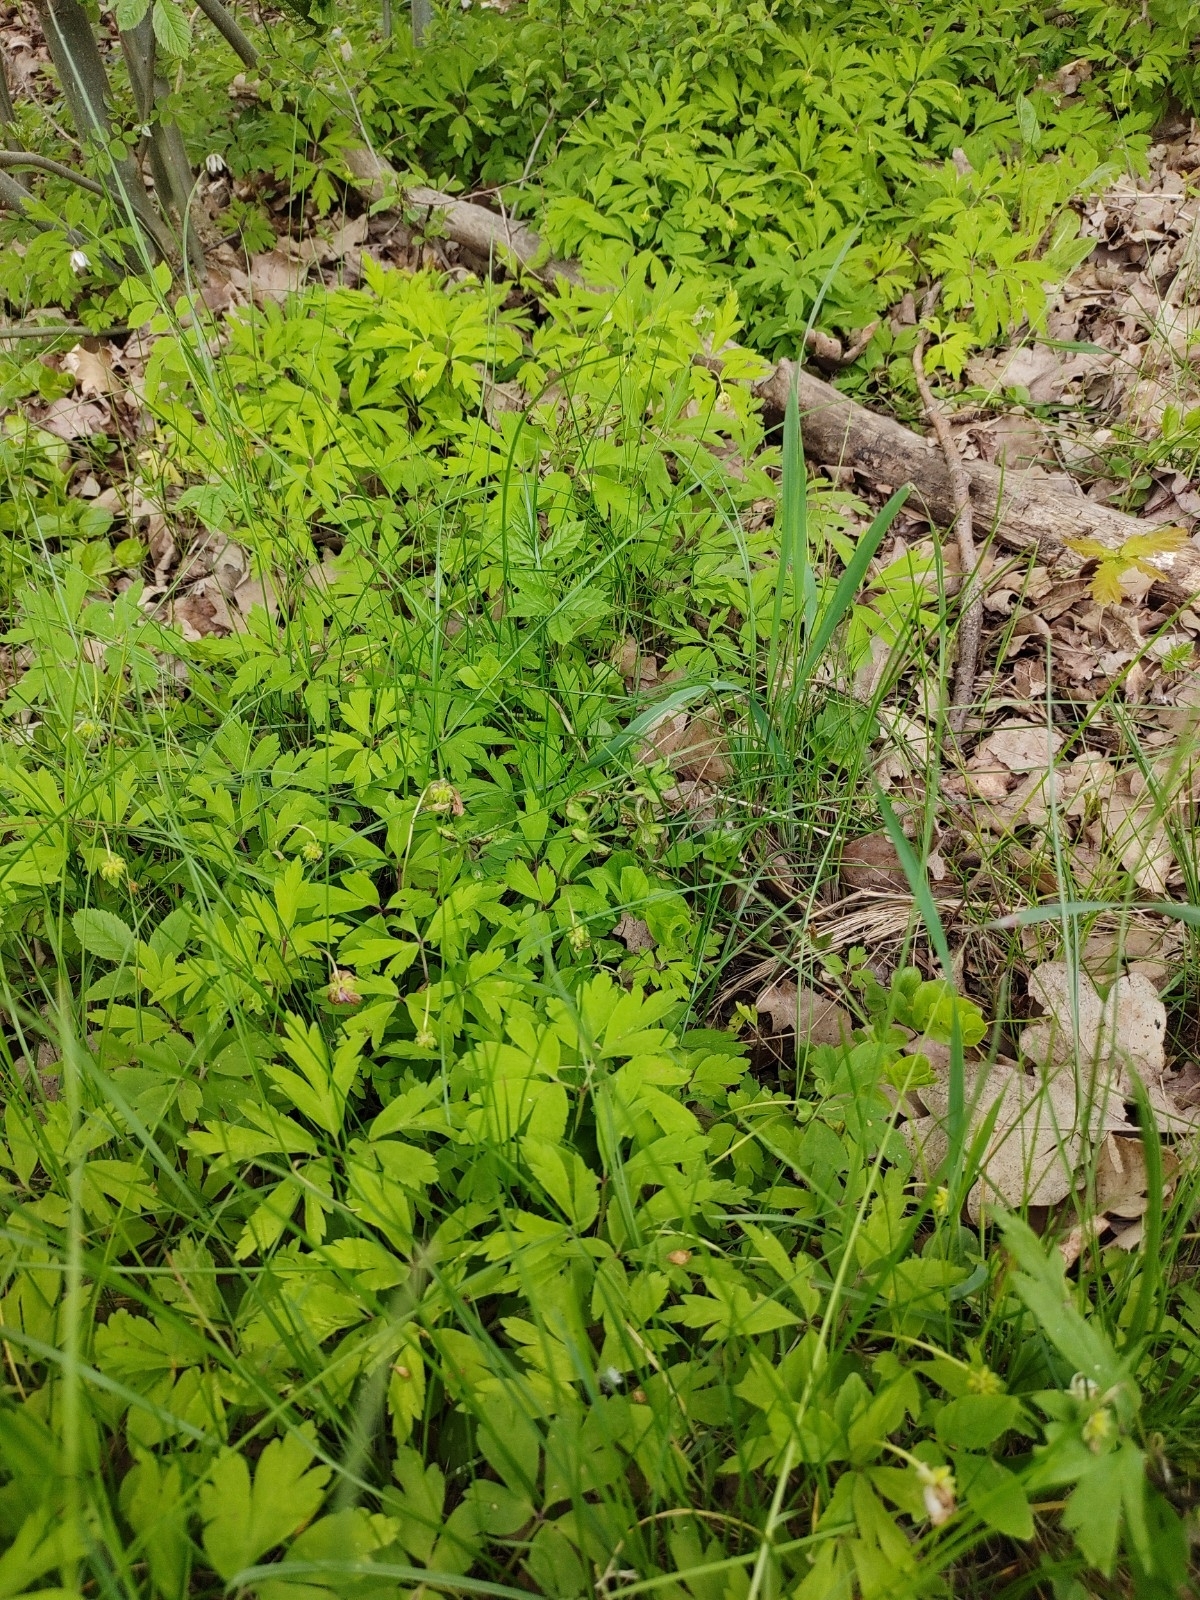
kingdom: Plantae
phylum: Tracheophyta
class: Magnoliopsida
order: Ranunculales
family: Ranunculaceae
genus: Anemone
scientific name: Anemone nemorosa
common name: Wood anemone
